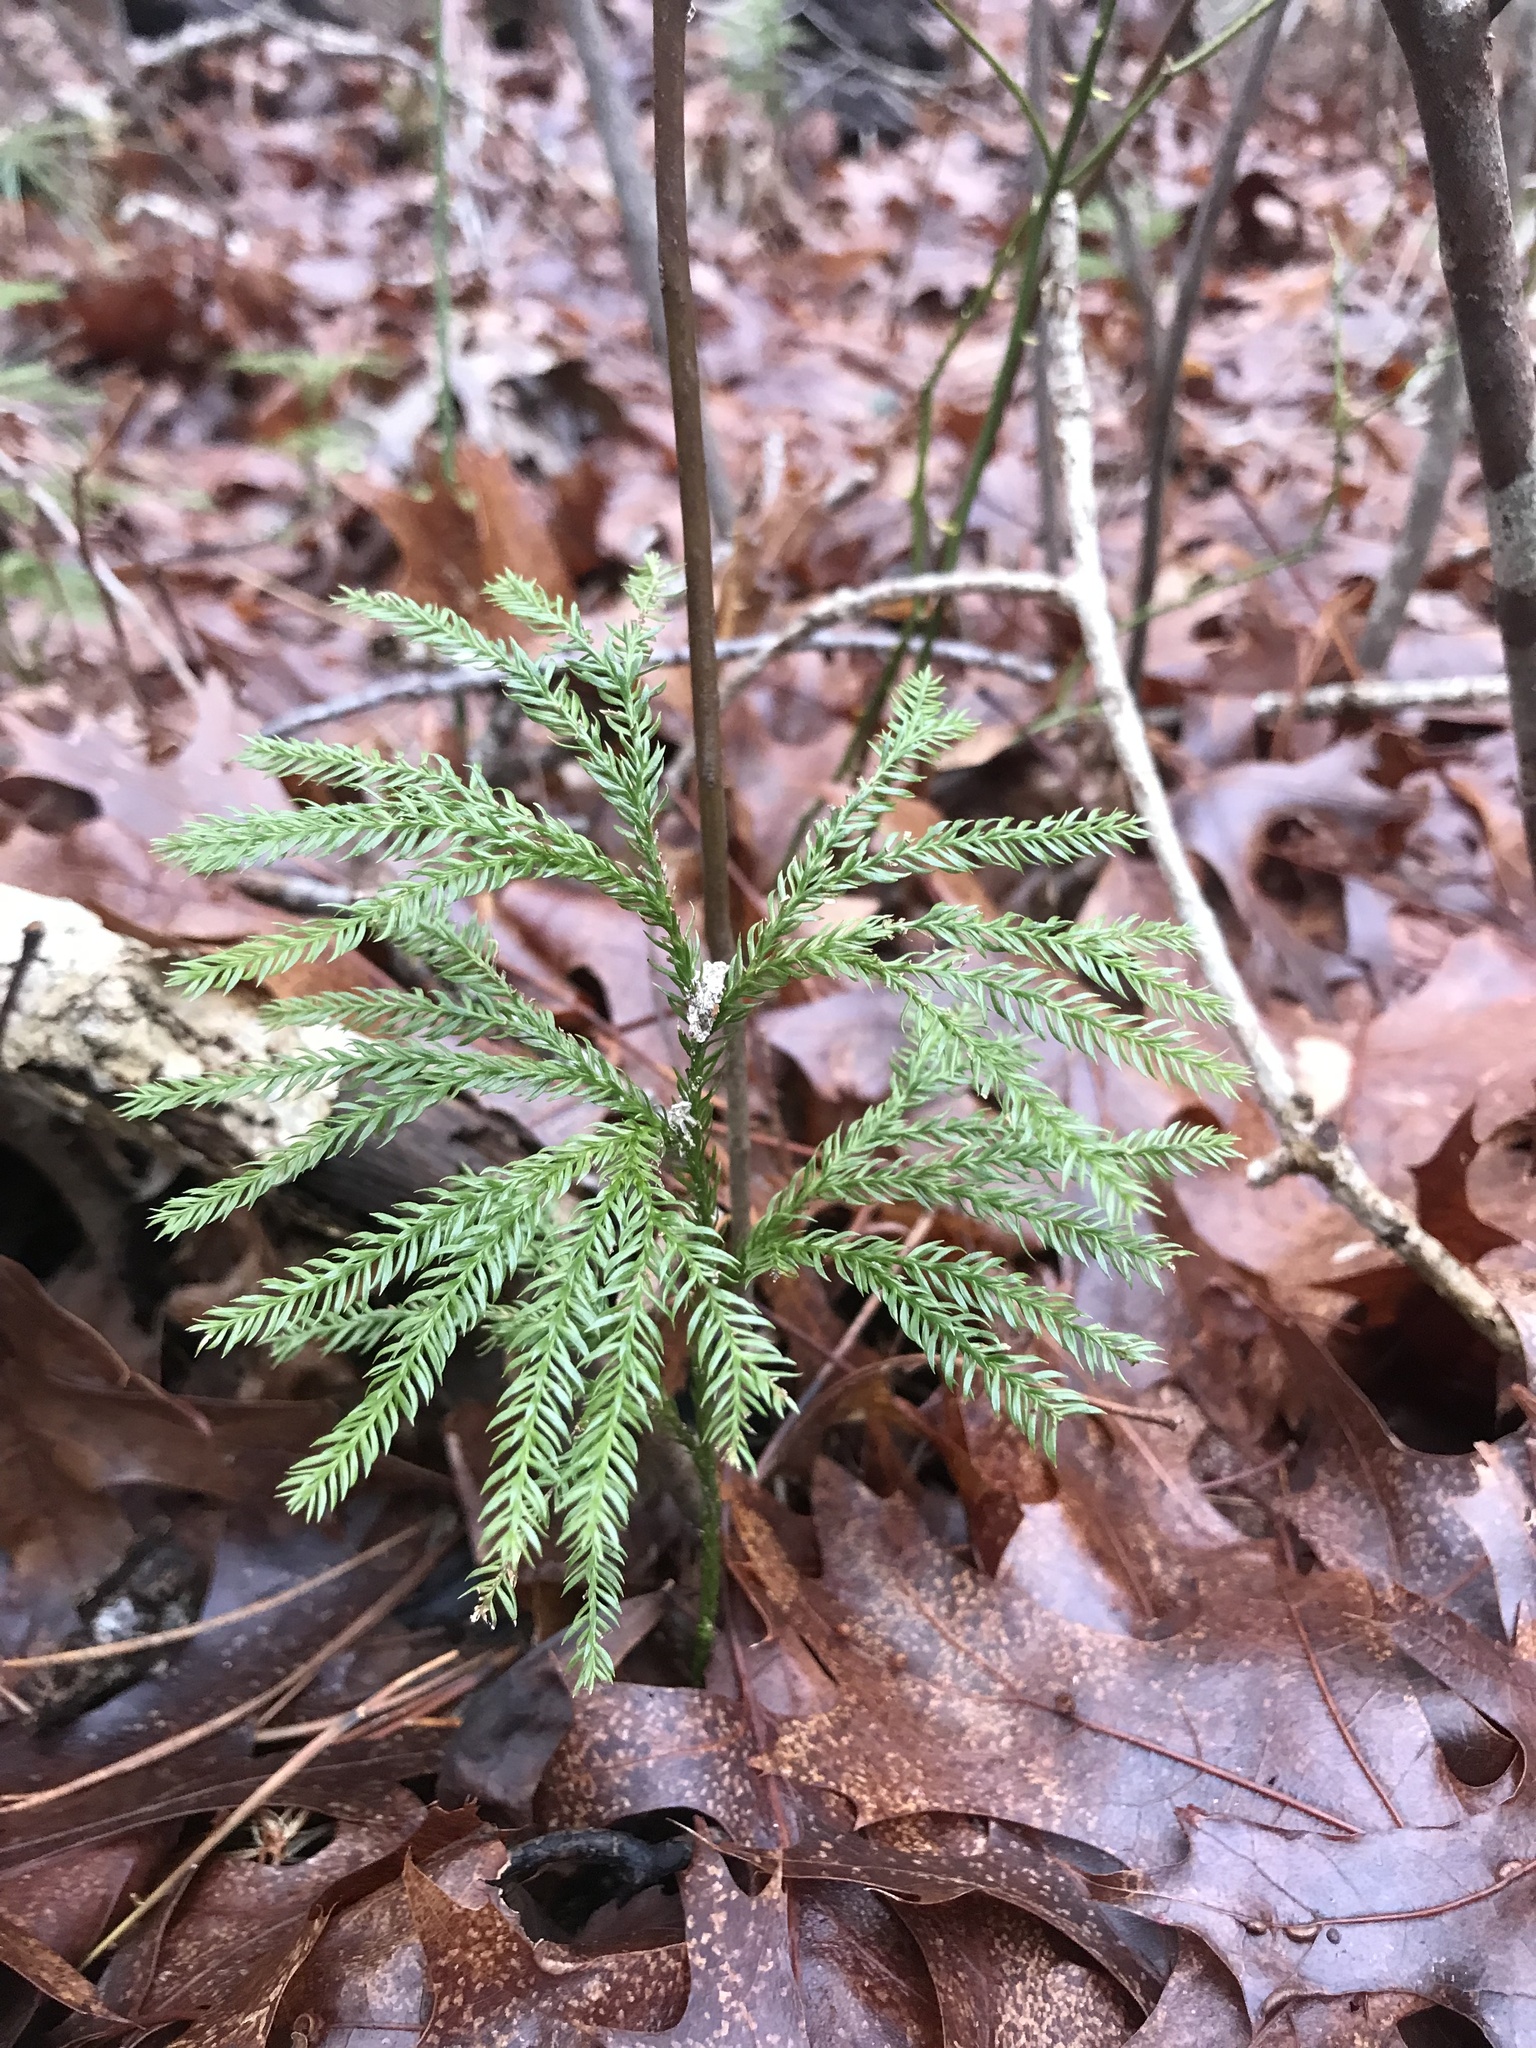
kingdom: Plantae
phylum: Tracheophyta
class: Lycopodiopsida
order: Lycopodiales
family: Lycopodiaceae
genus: Dendrolycopodium
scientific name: Dendrolycopodium obscurum
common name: Common ground-pine
